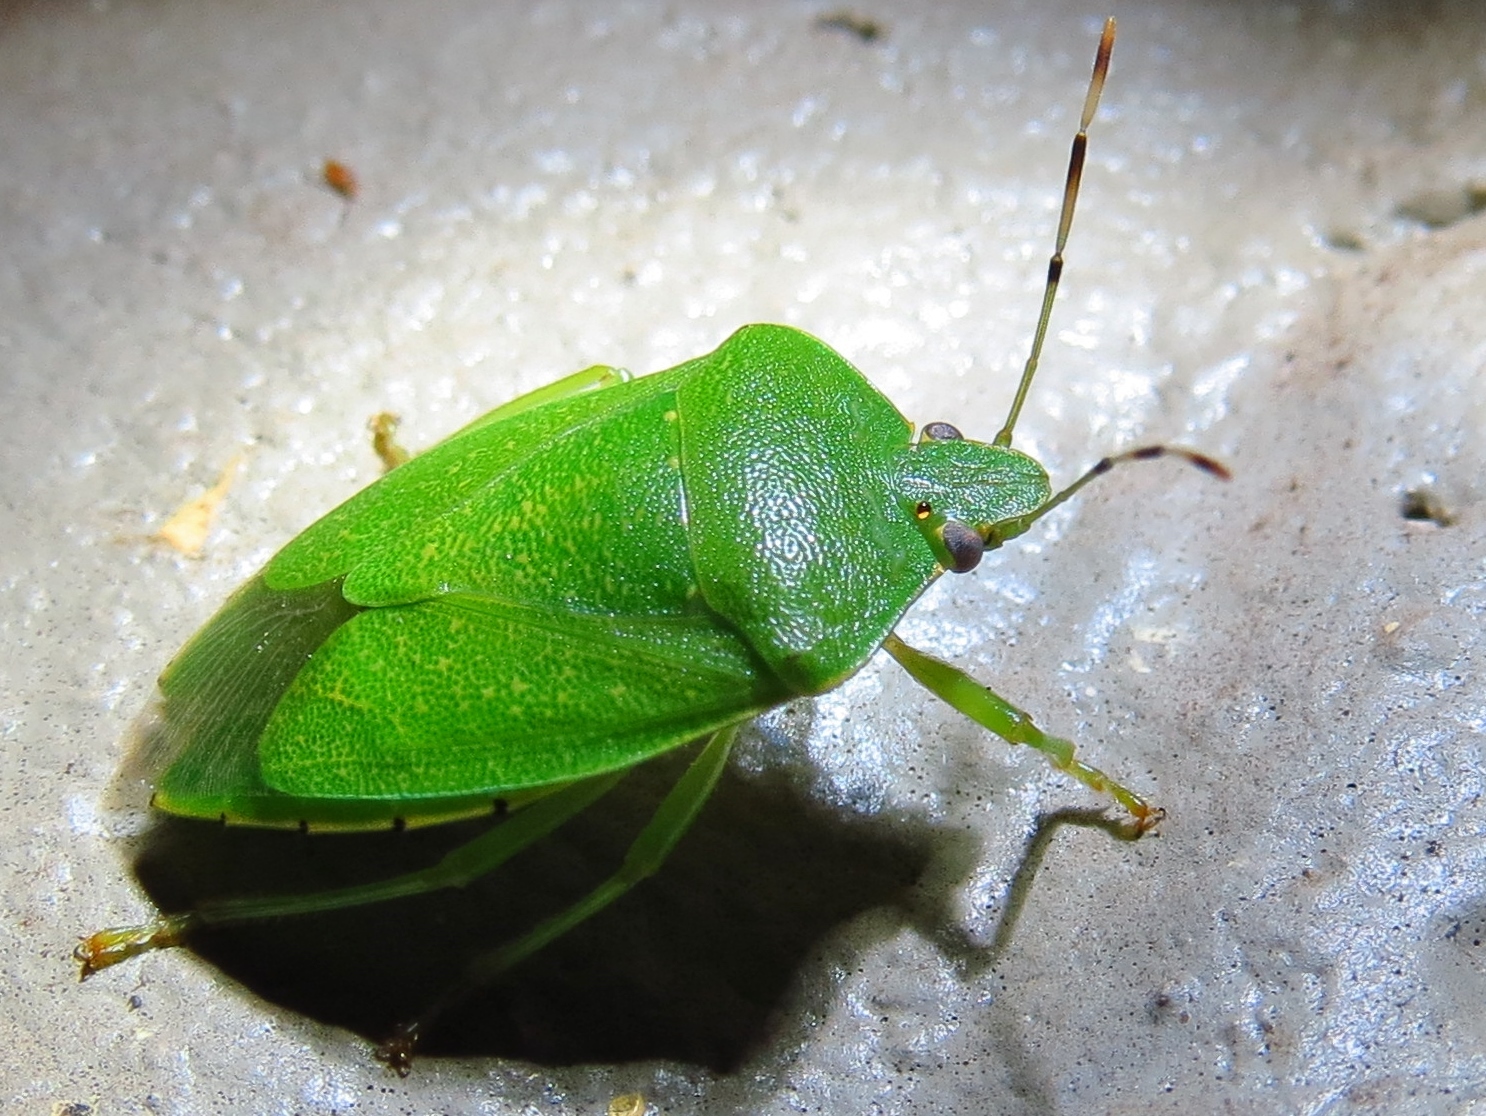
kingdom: Animalia
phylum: Arthropoda
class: Insecta
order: Hemiptera
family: Pentatomidae
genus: Chinavia
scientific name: Chinavia hilaris
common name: Green stink bug
